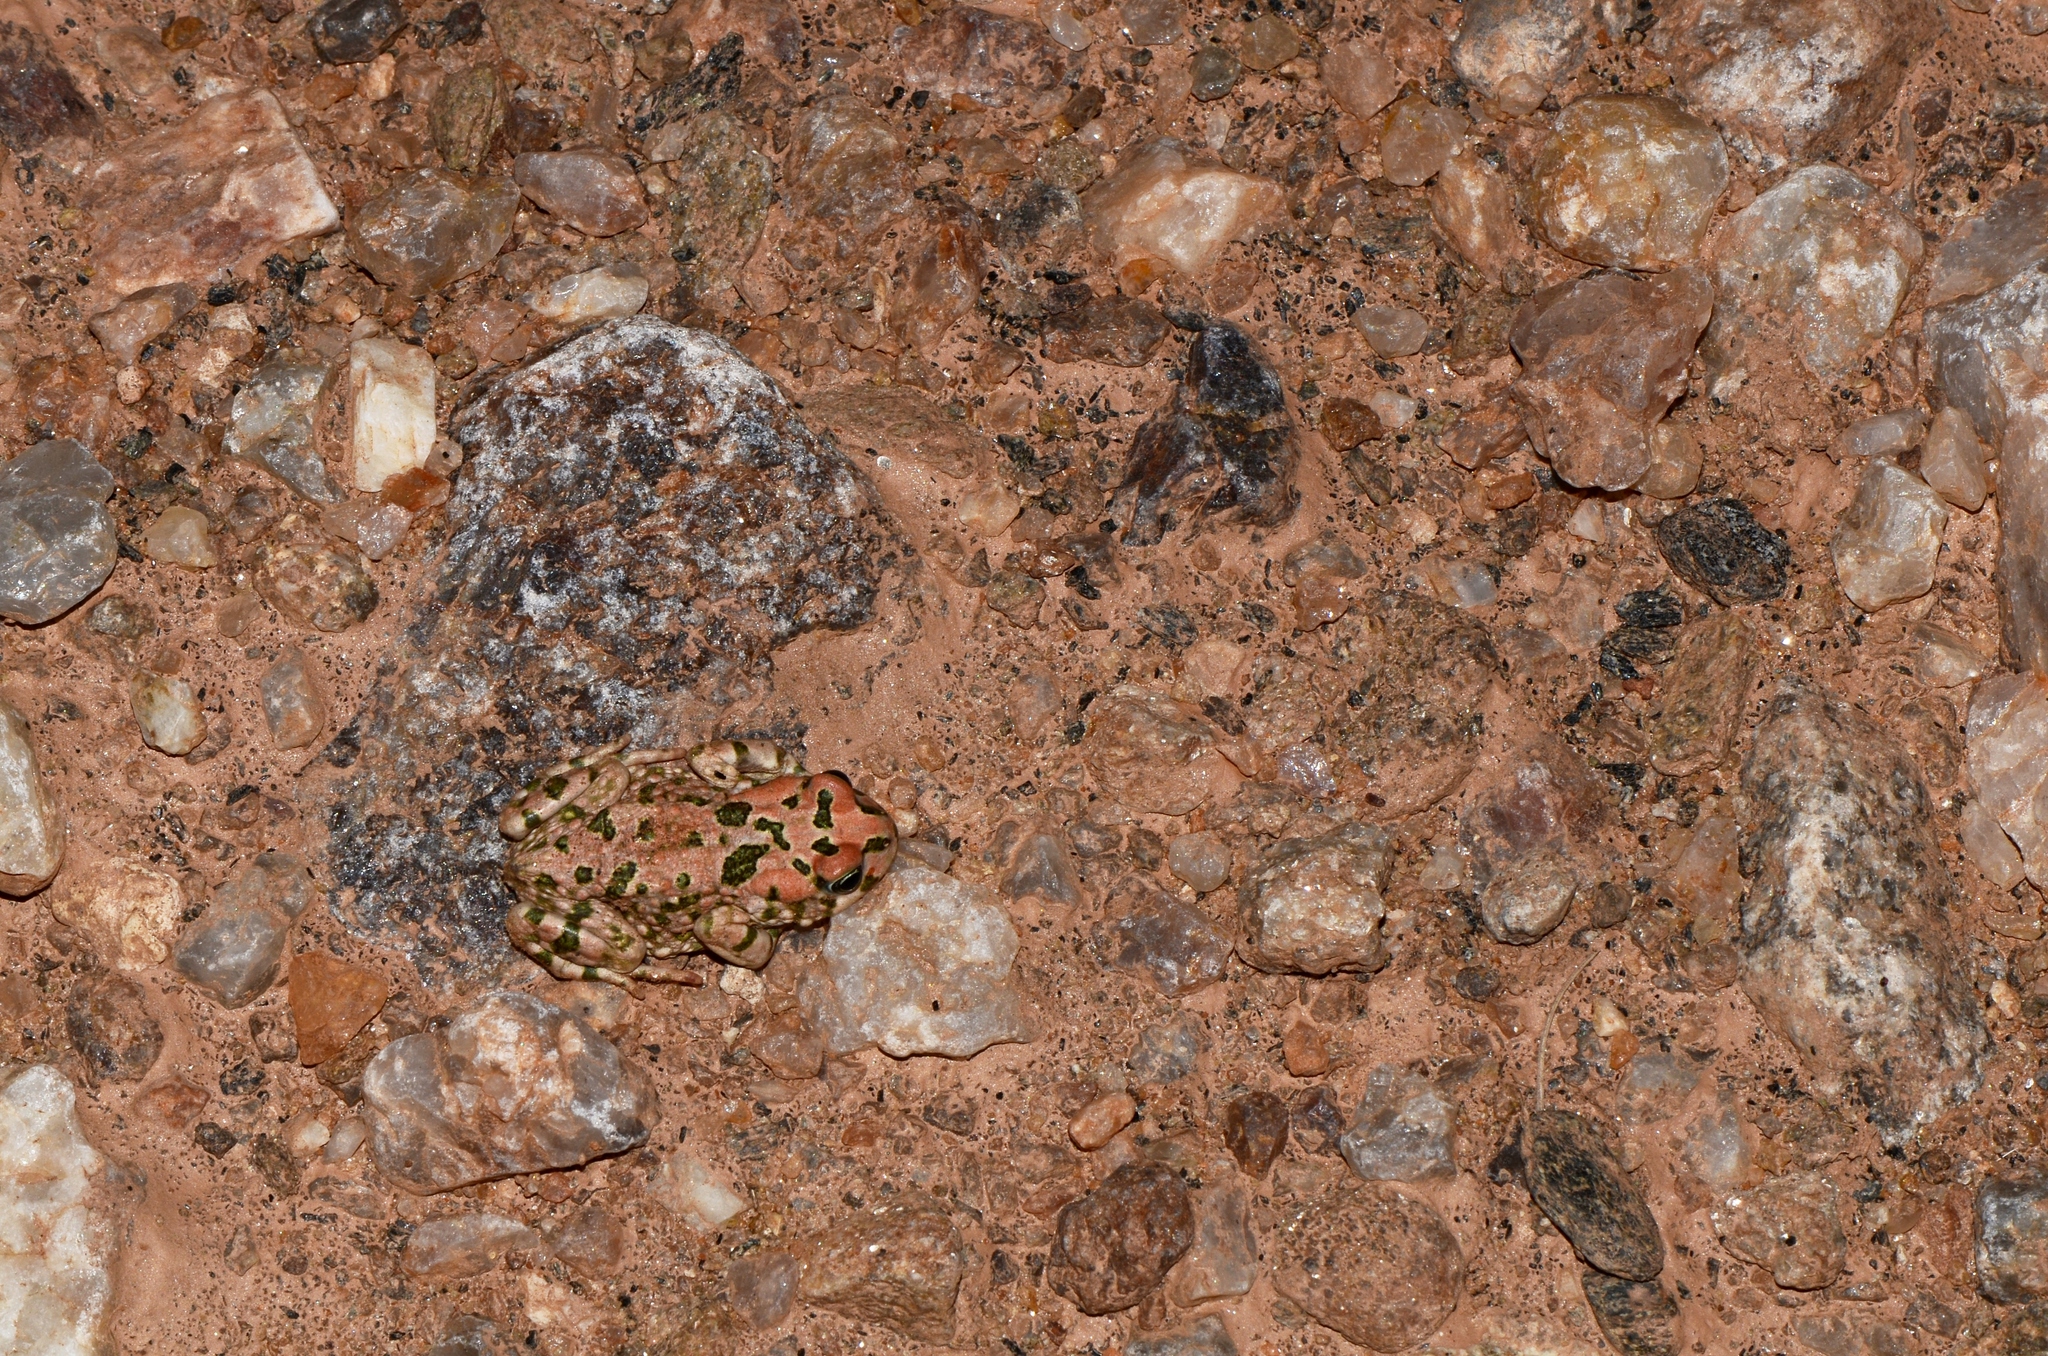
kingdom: Animalia
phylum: Chordata
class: Amphibia
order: Anura
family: Bufonidae
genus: Vandijkophrynus
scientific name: Vandijkophrynus robinsoni
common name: Paradise toad
